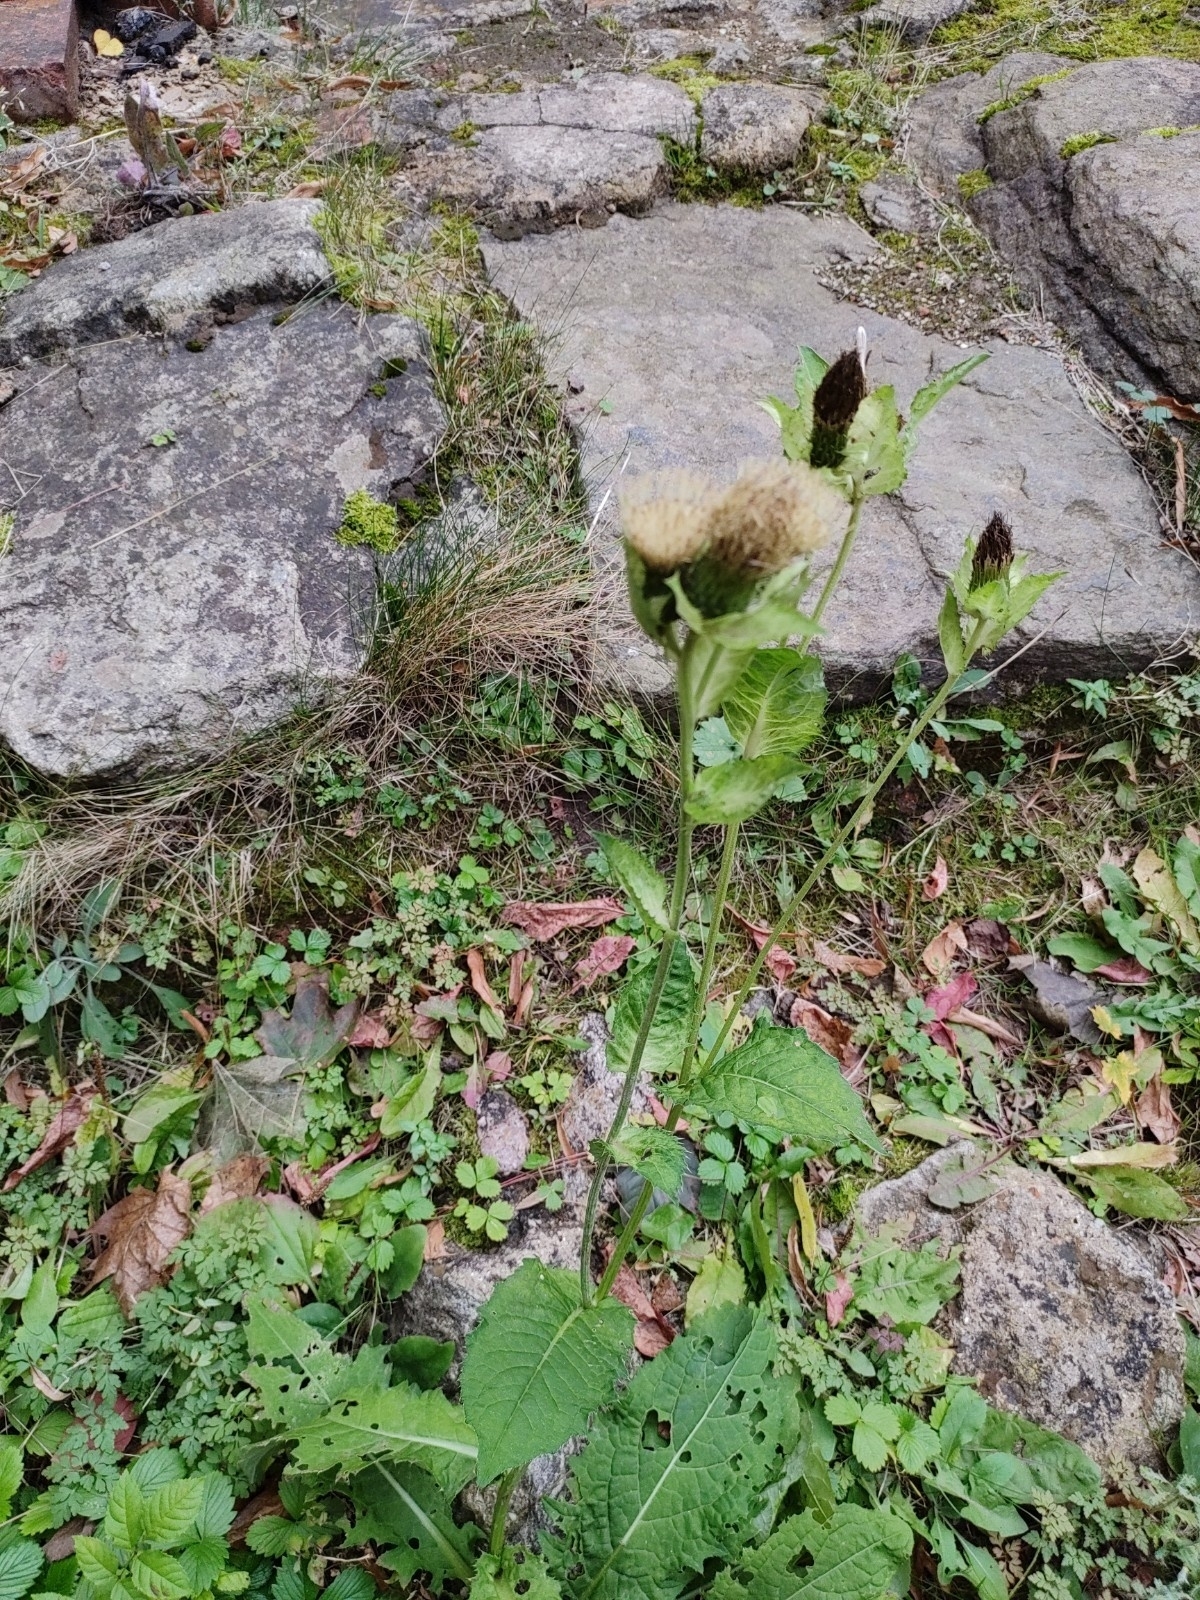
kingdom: Plantae
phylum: Tracheophyta
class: Magnoliopsida
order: Asterales
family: Asteraceae
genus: Cirsium
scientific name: Cirsium oleraceum
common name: Cabbage thistle
